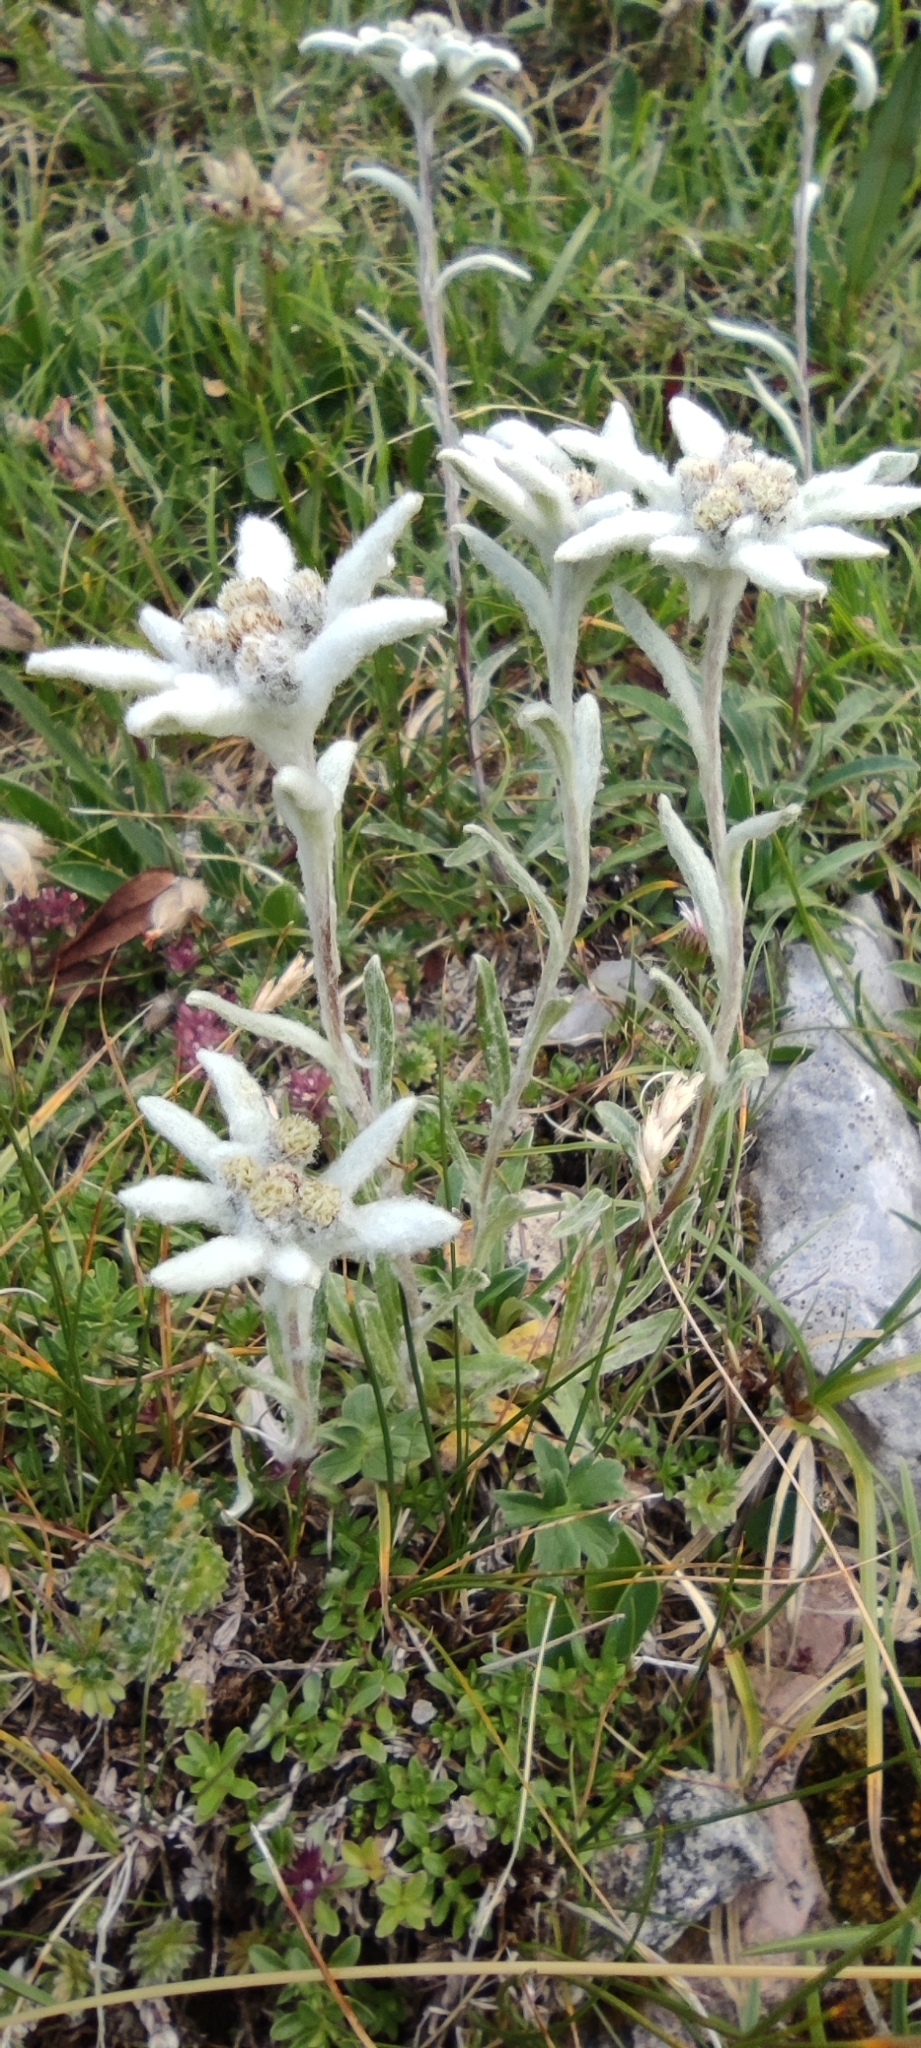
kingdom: Plantae
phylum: Tracheophyta
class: Magnoliopsida
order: Asterales
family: Asteraceae
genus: Leontopodium
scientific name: Leontopodium nivale
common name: Edelweiss
